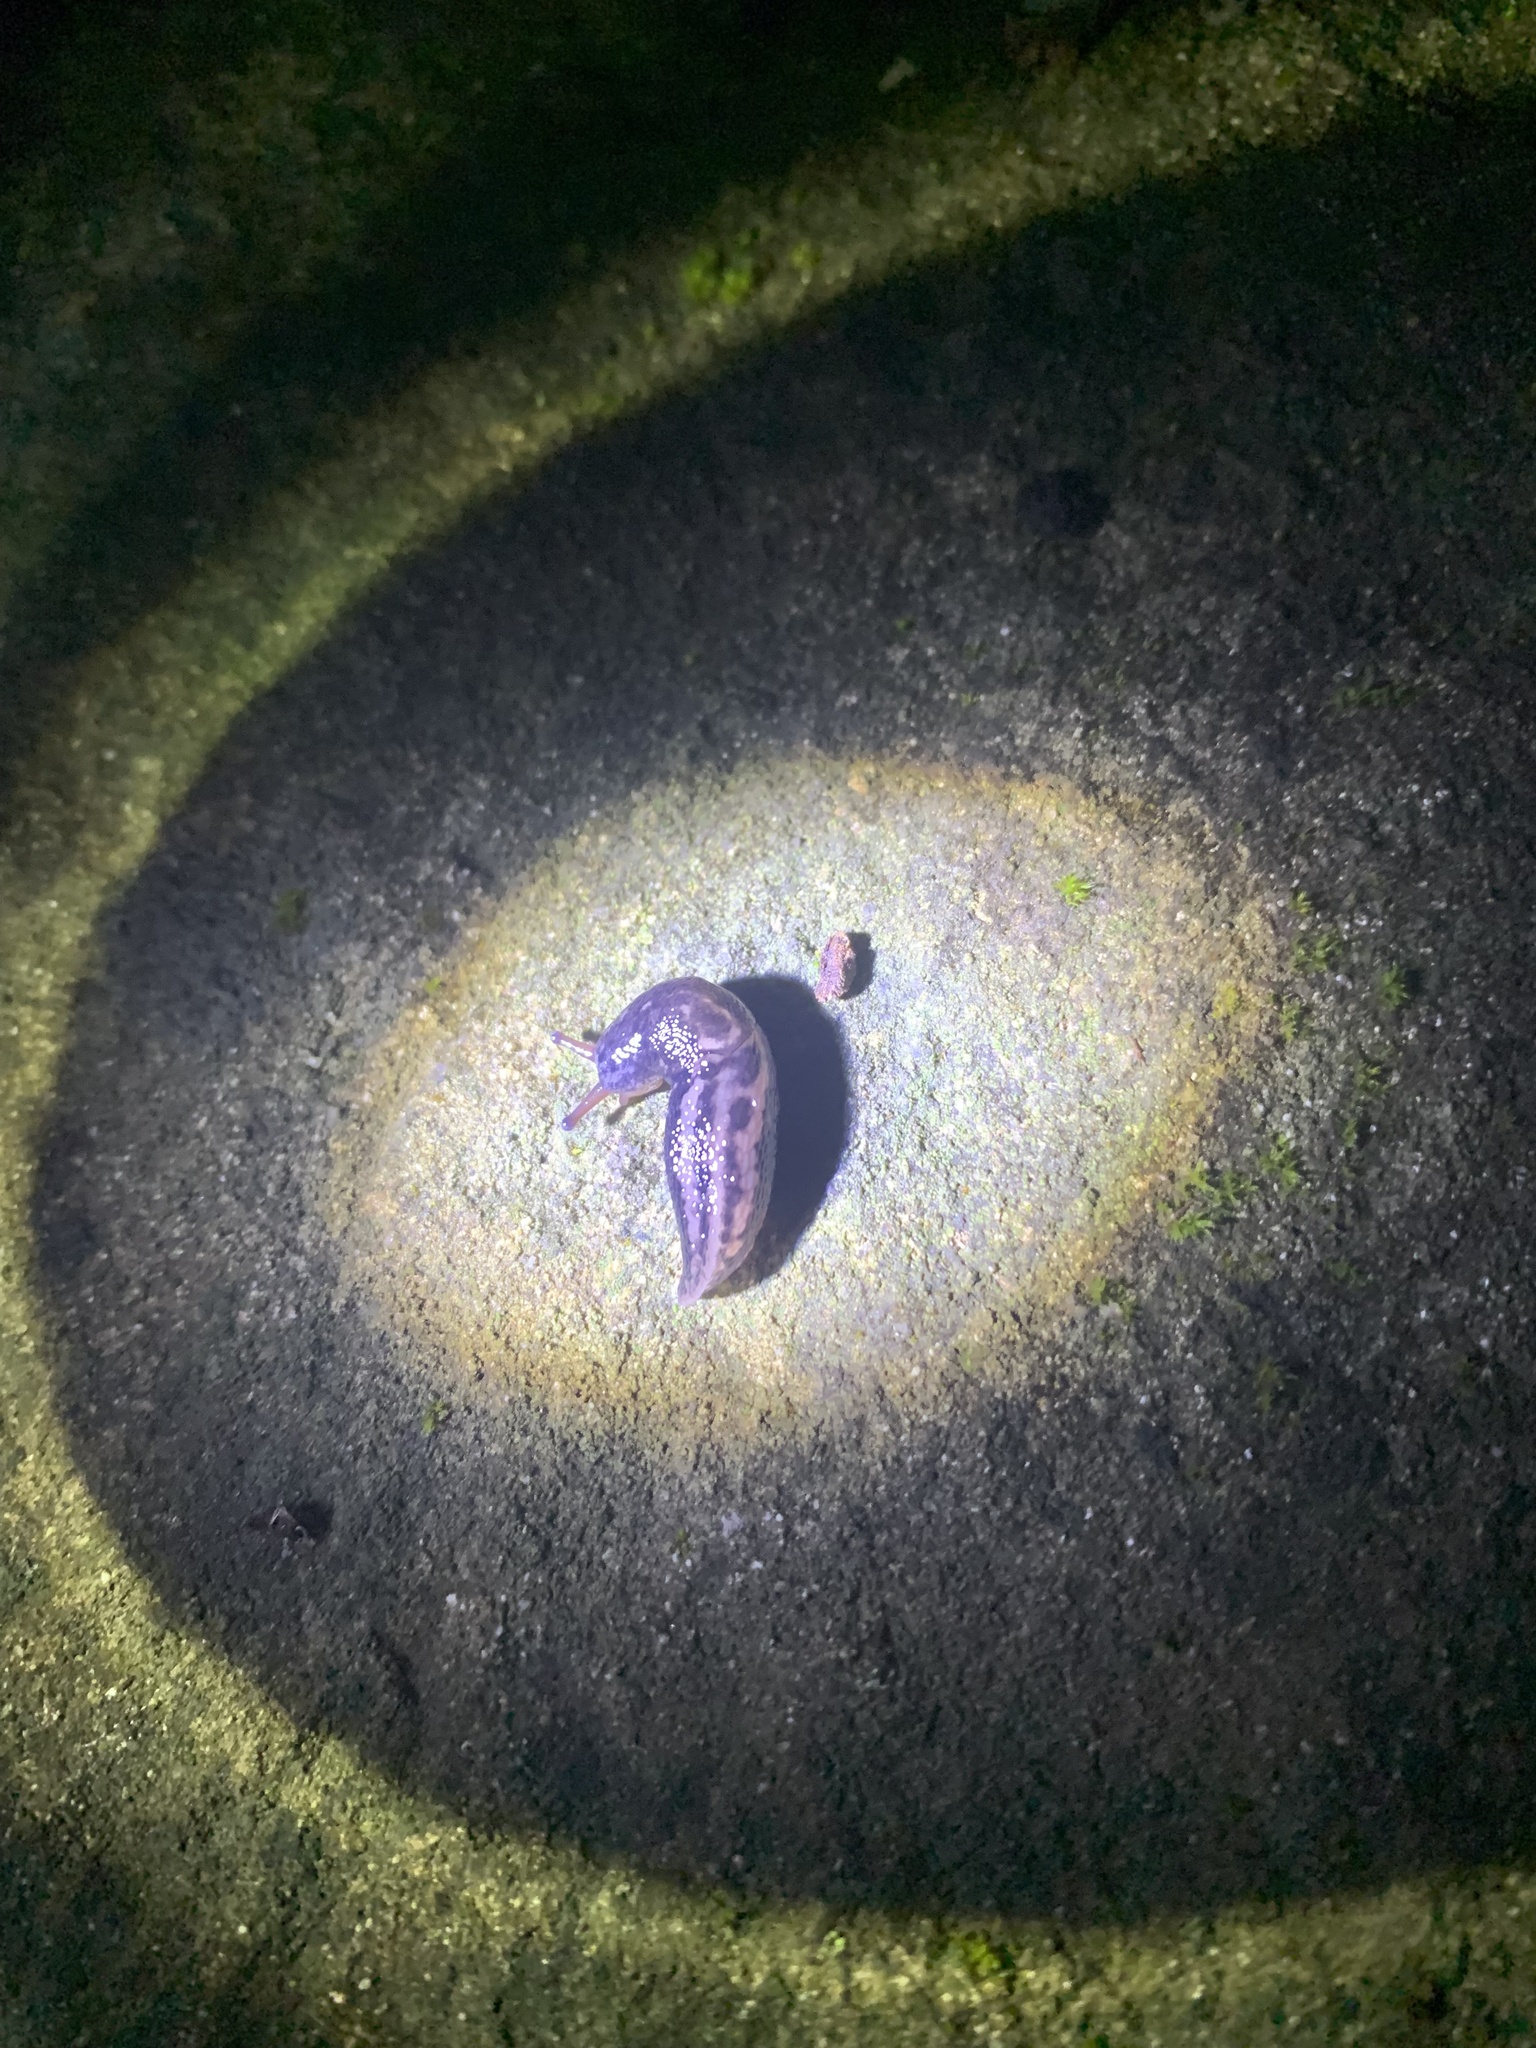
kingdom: Animalia
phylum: Mollusca
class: Gastropoda
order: Stylommatophora
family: Limacidae
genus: Limax
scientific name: Limax maximus
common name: Great grey slug
